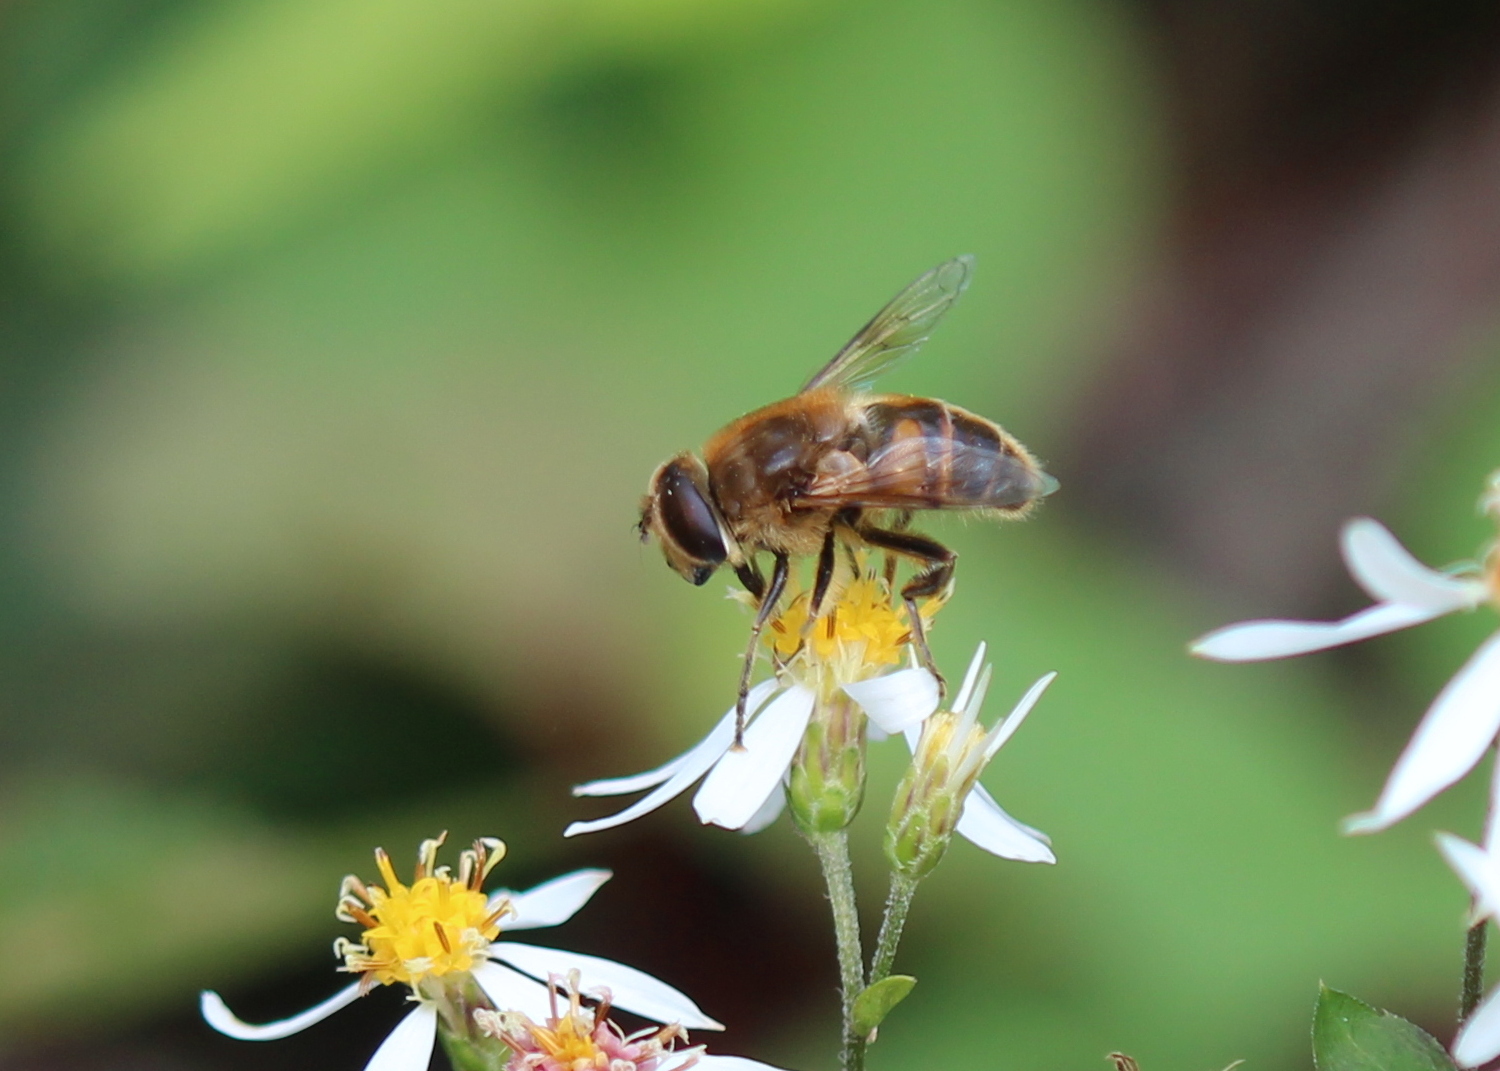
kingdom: Animalia
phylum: Arthropoda
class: Insecta
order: Diptera
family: Syrphidae
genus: Eristalis
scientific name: Eristalis tenax
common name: Drone fly
